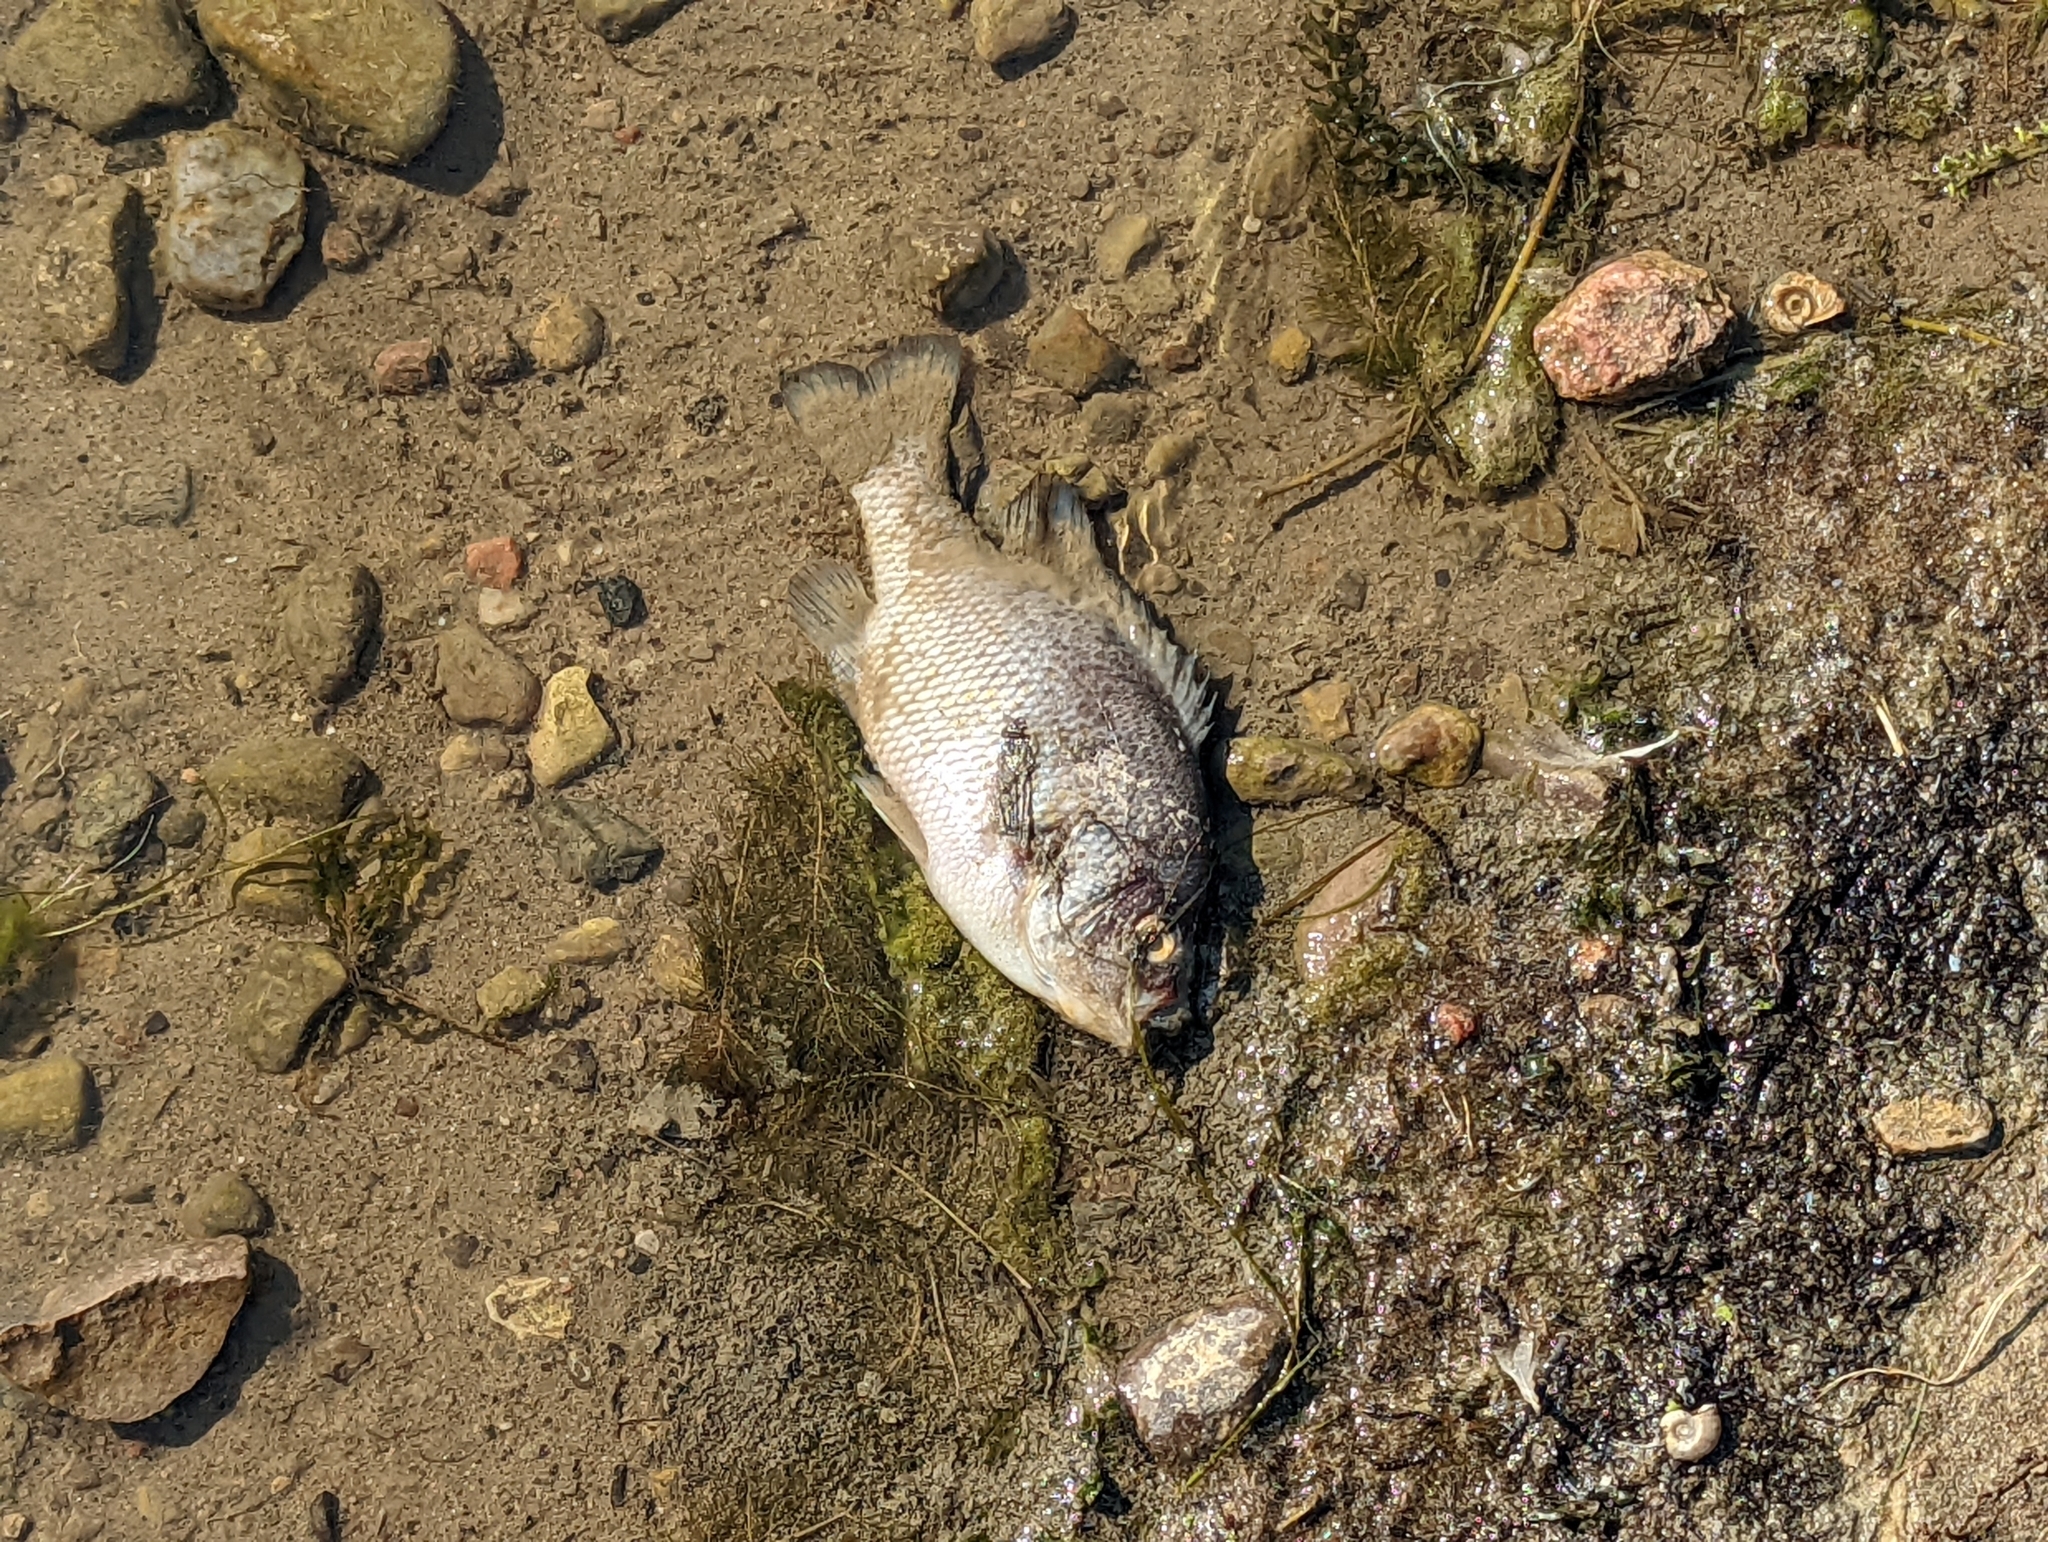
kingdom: Animalia
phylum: Chordata
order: Perciformes
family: Centrarchidae
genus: Lepomis
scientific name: Lepomis gibbosus
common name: Pumpkinseed
